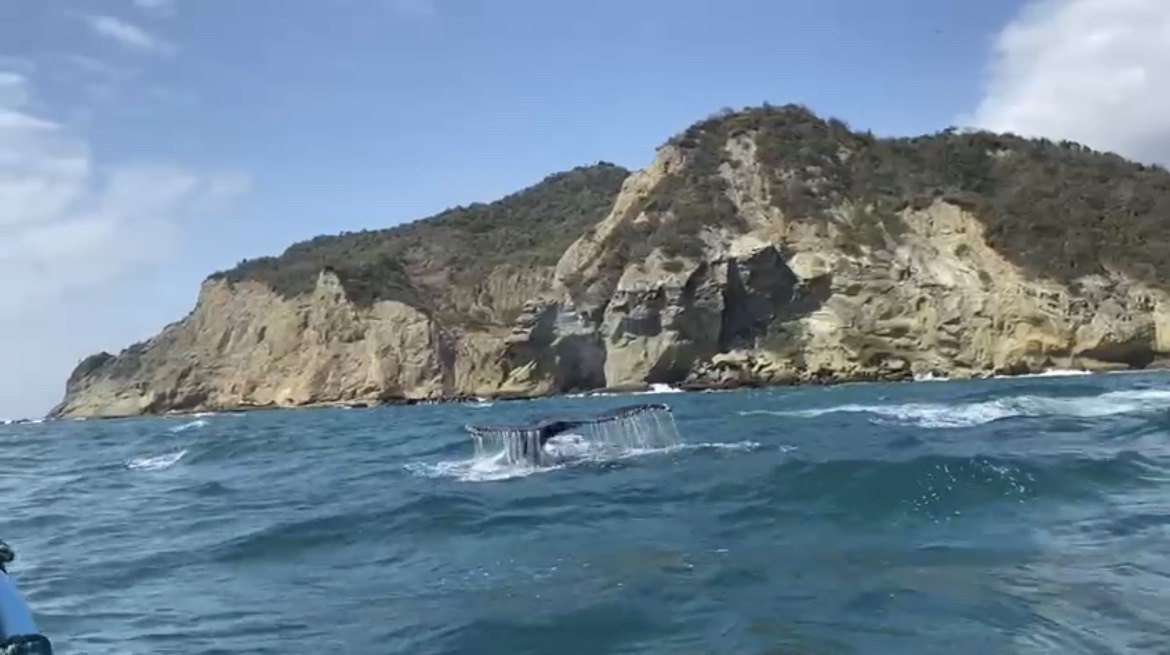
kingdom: Animalia
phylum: Chordata
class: Mammalia
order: Cetacea
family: Balaenopteridae
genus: Megaptera
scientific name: Megaptera novaeangliae
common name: Humpback whale
